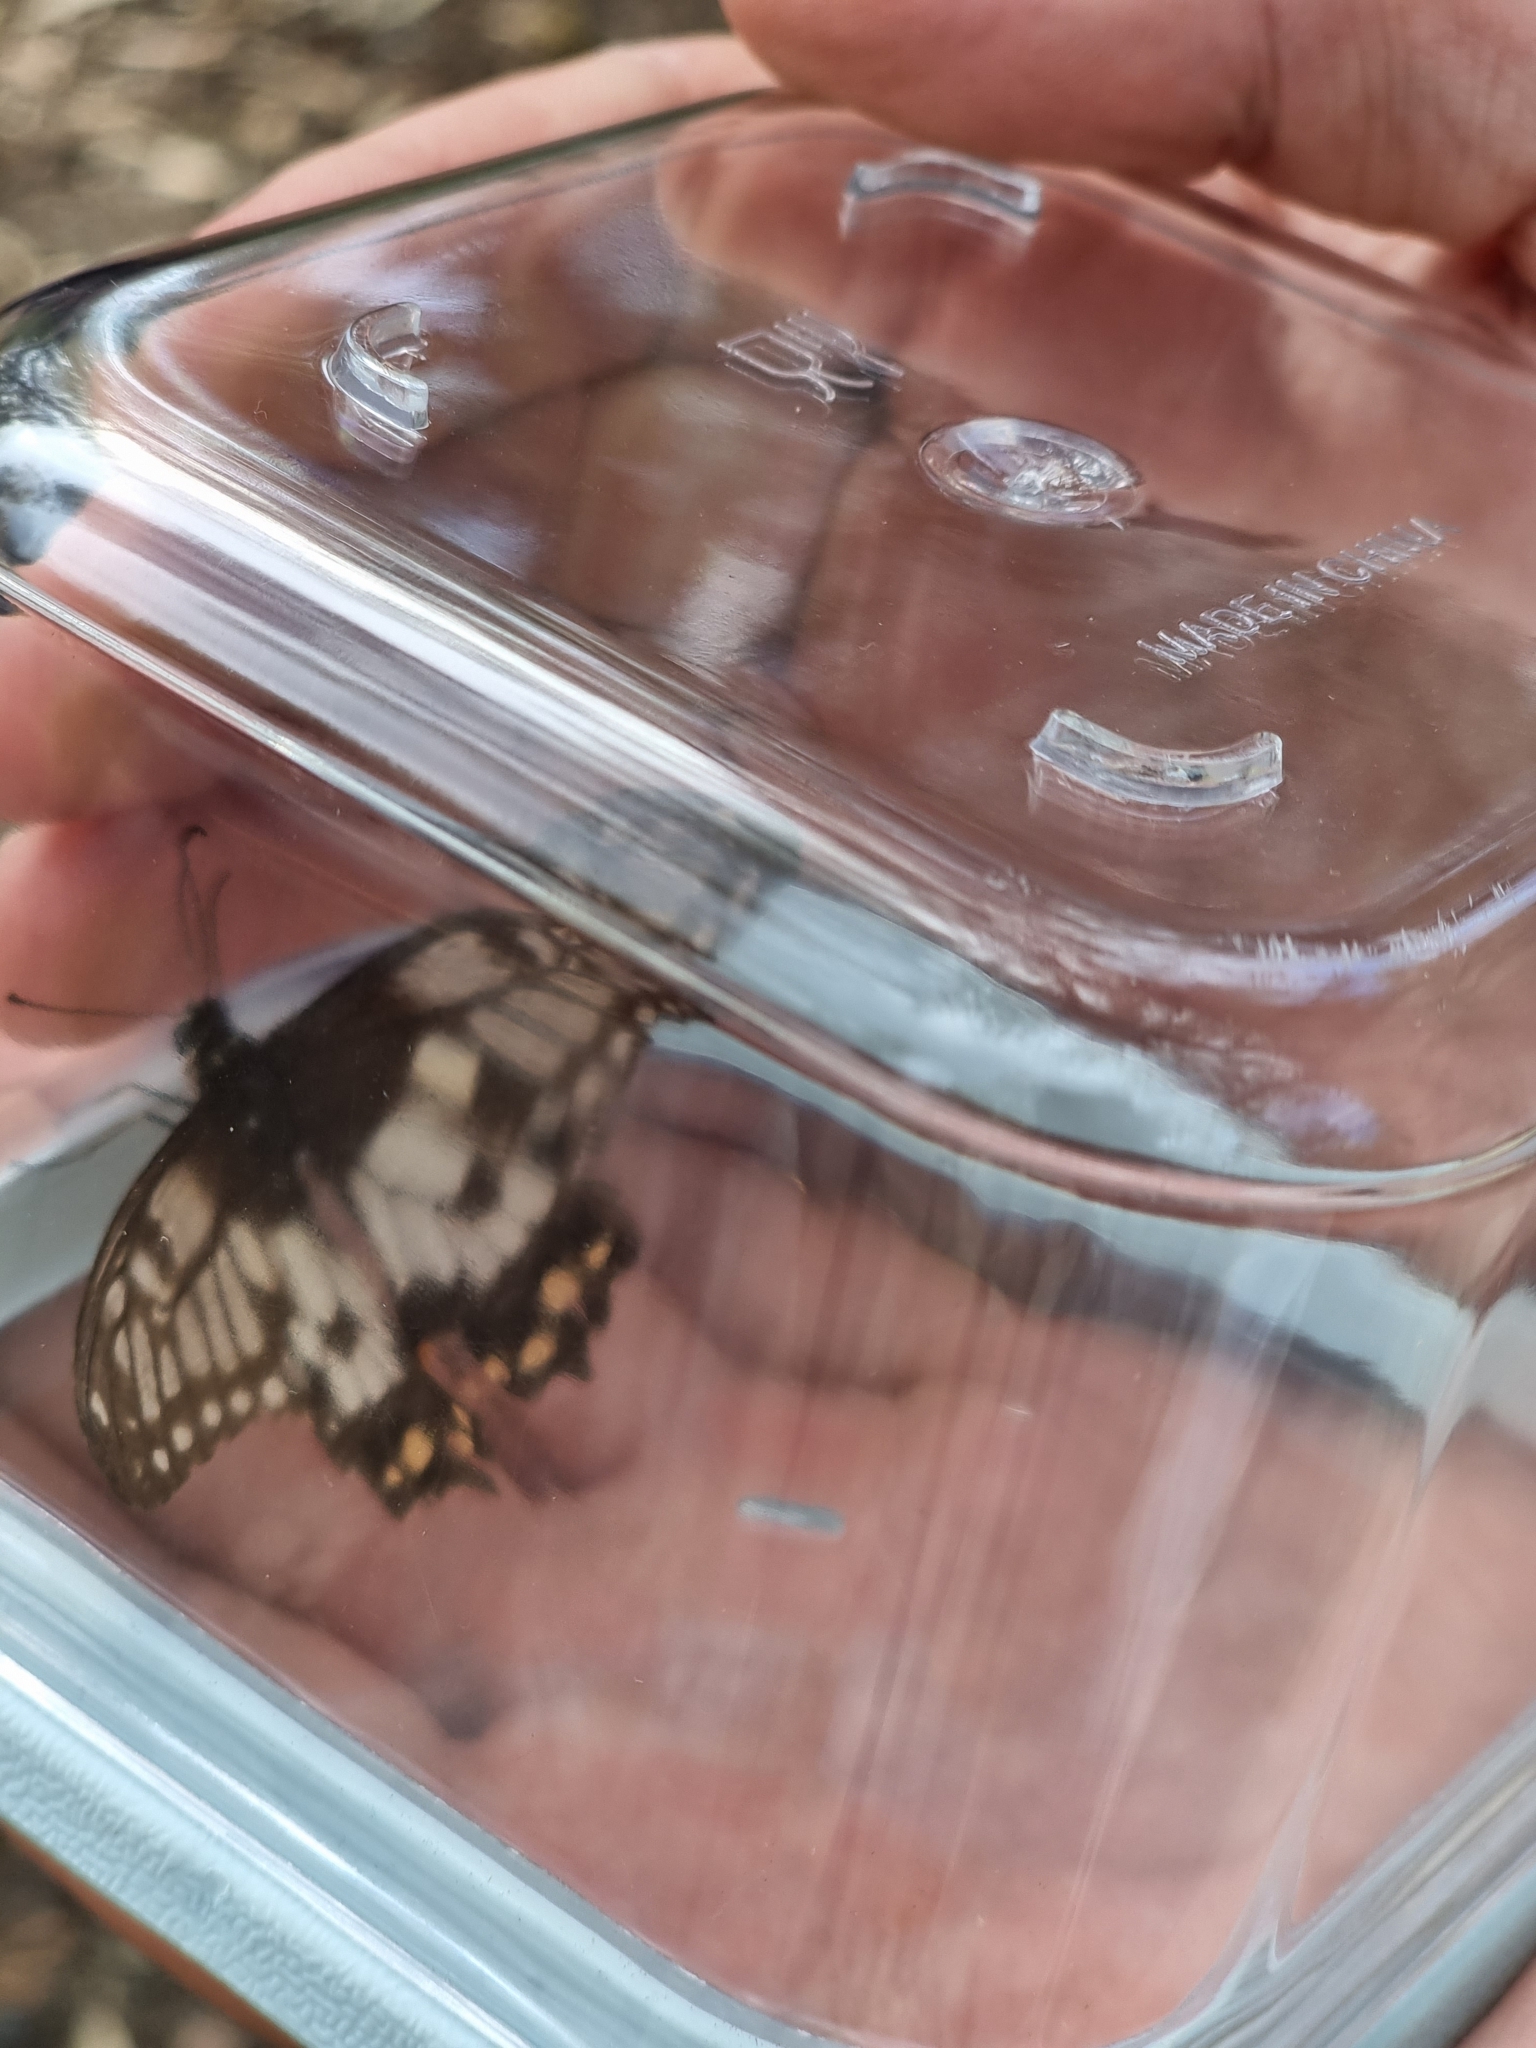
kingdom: Animalia
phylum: Arthropoda
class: Insecta
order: Lepidoptera
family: Papilionidae
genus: Papilio
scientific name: Papilio anactus
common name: Dingy swallowtail
